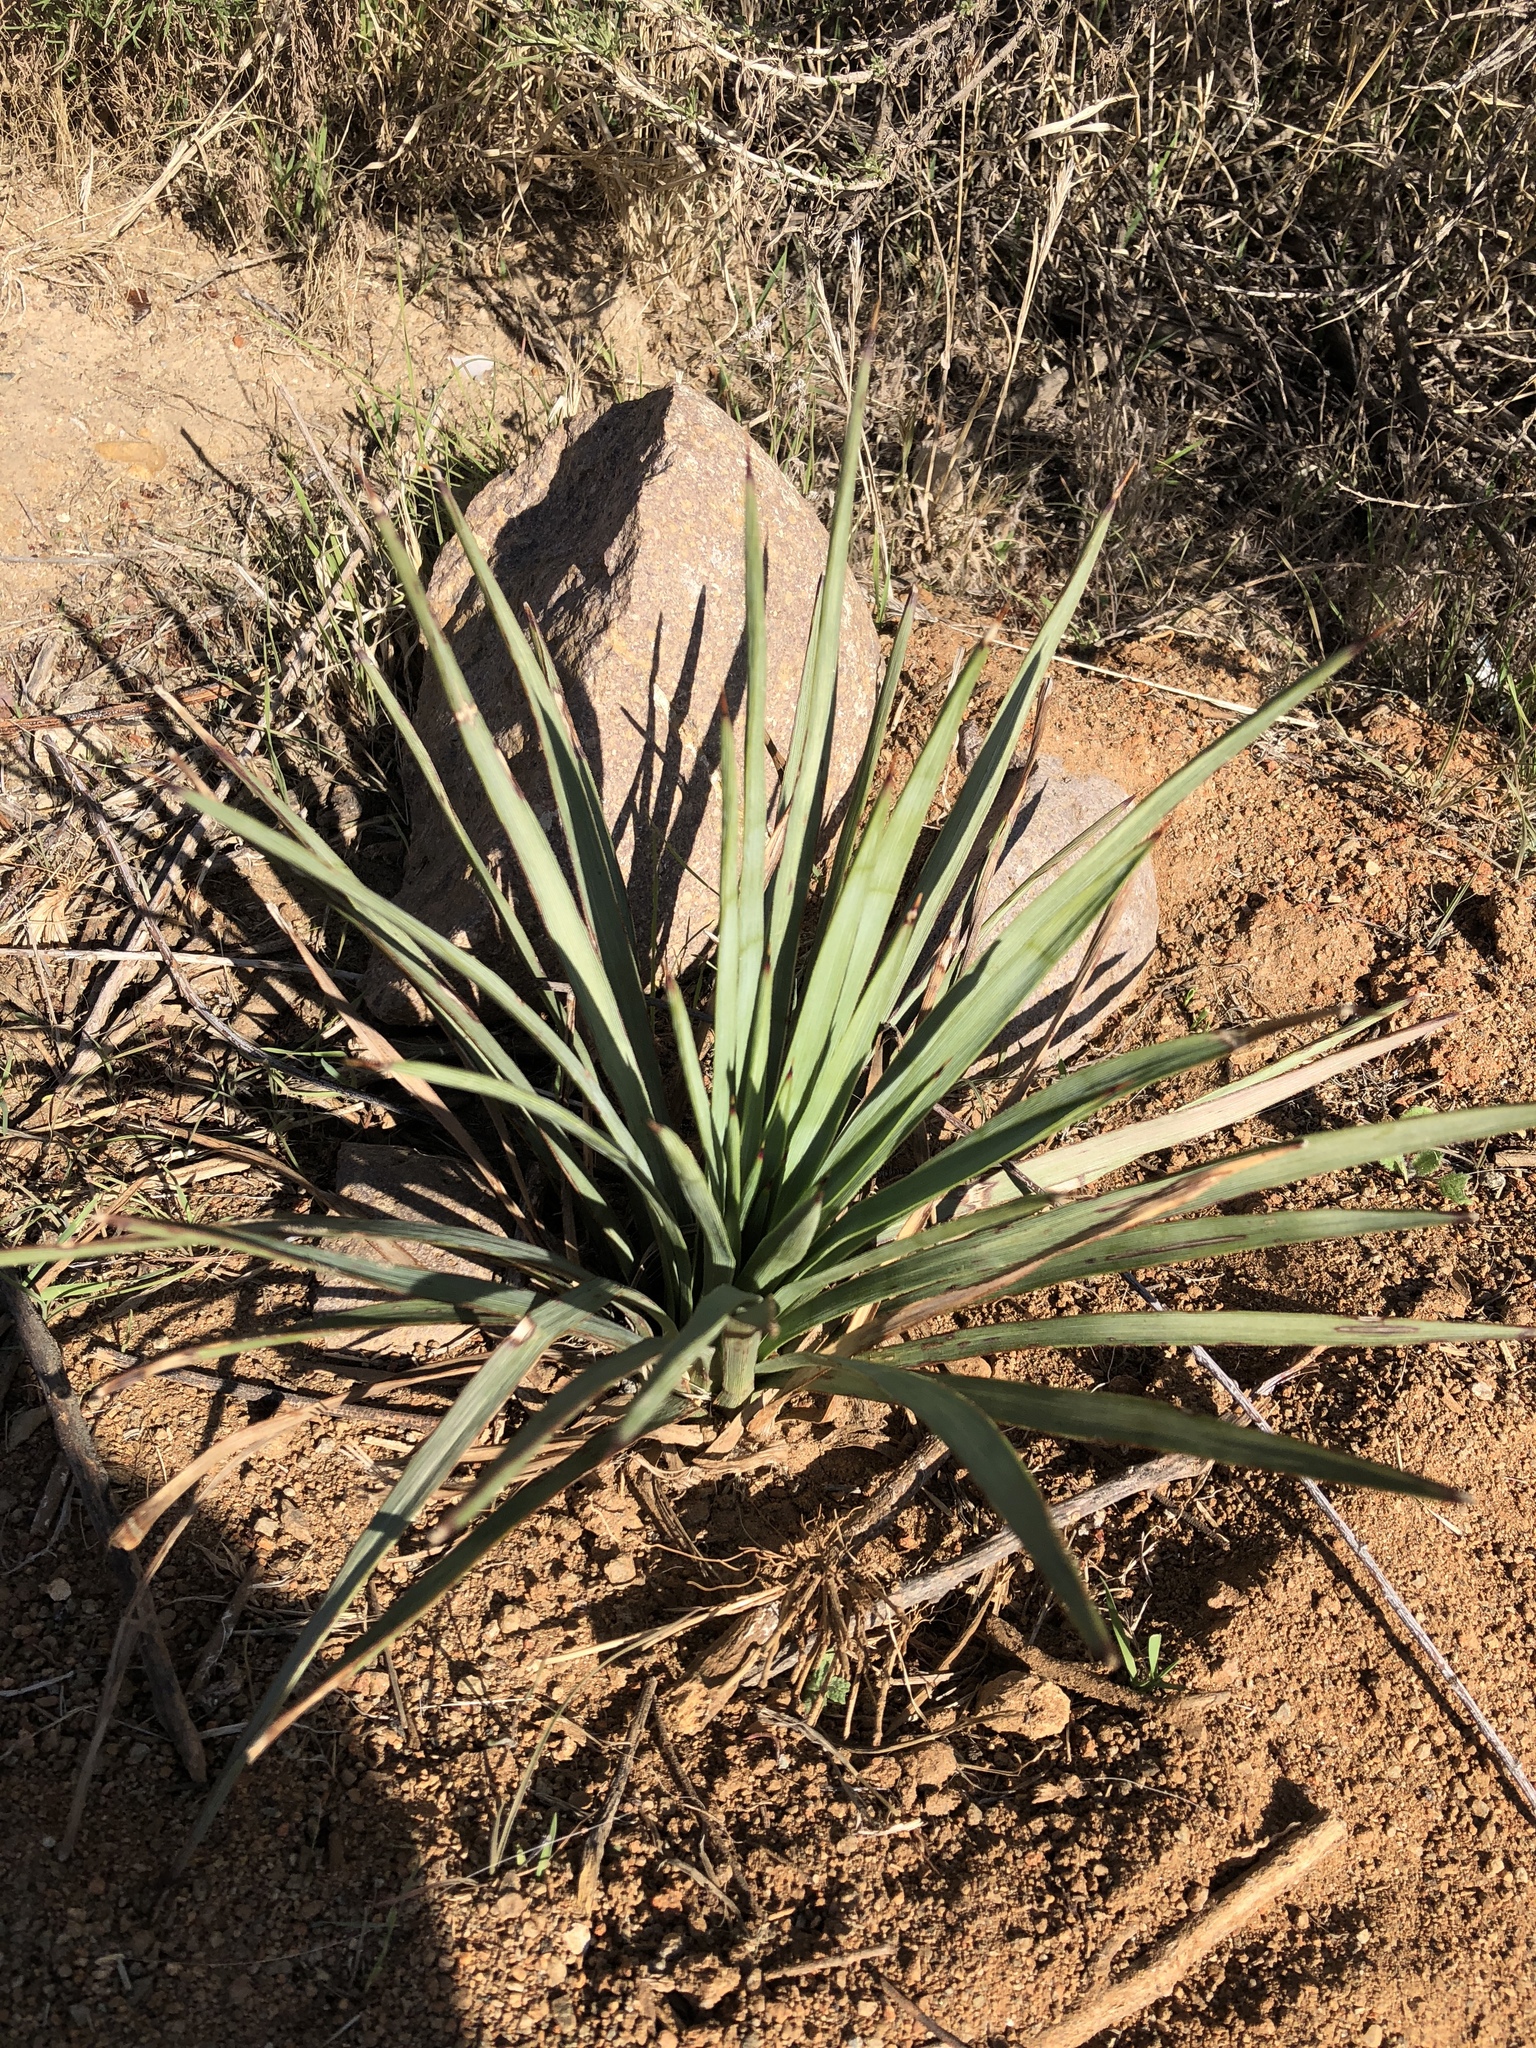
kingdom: Plantae
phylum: Tracheophyta
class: Liliopsida
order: Asparagales
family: Asparagaceae
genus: Hesperoyucca
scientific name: Hesperoyucca whipplei
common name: Our lord's-candle
